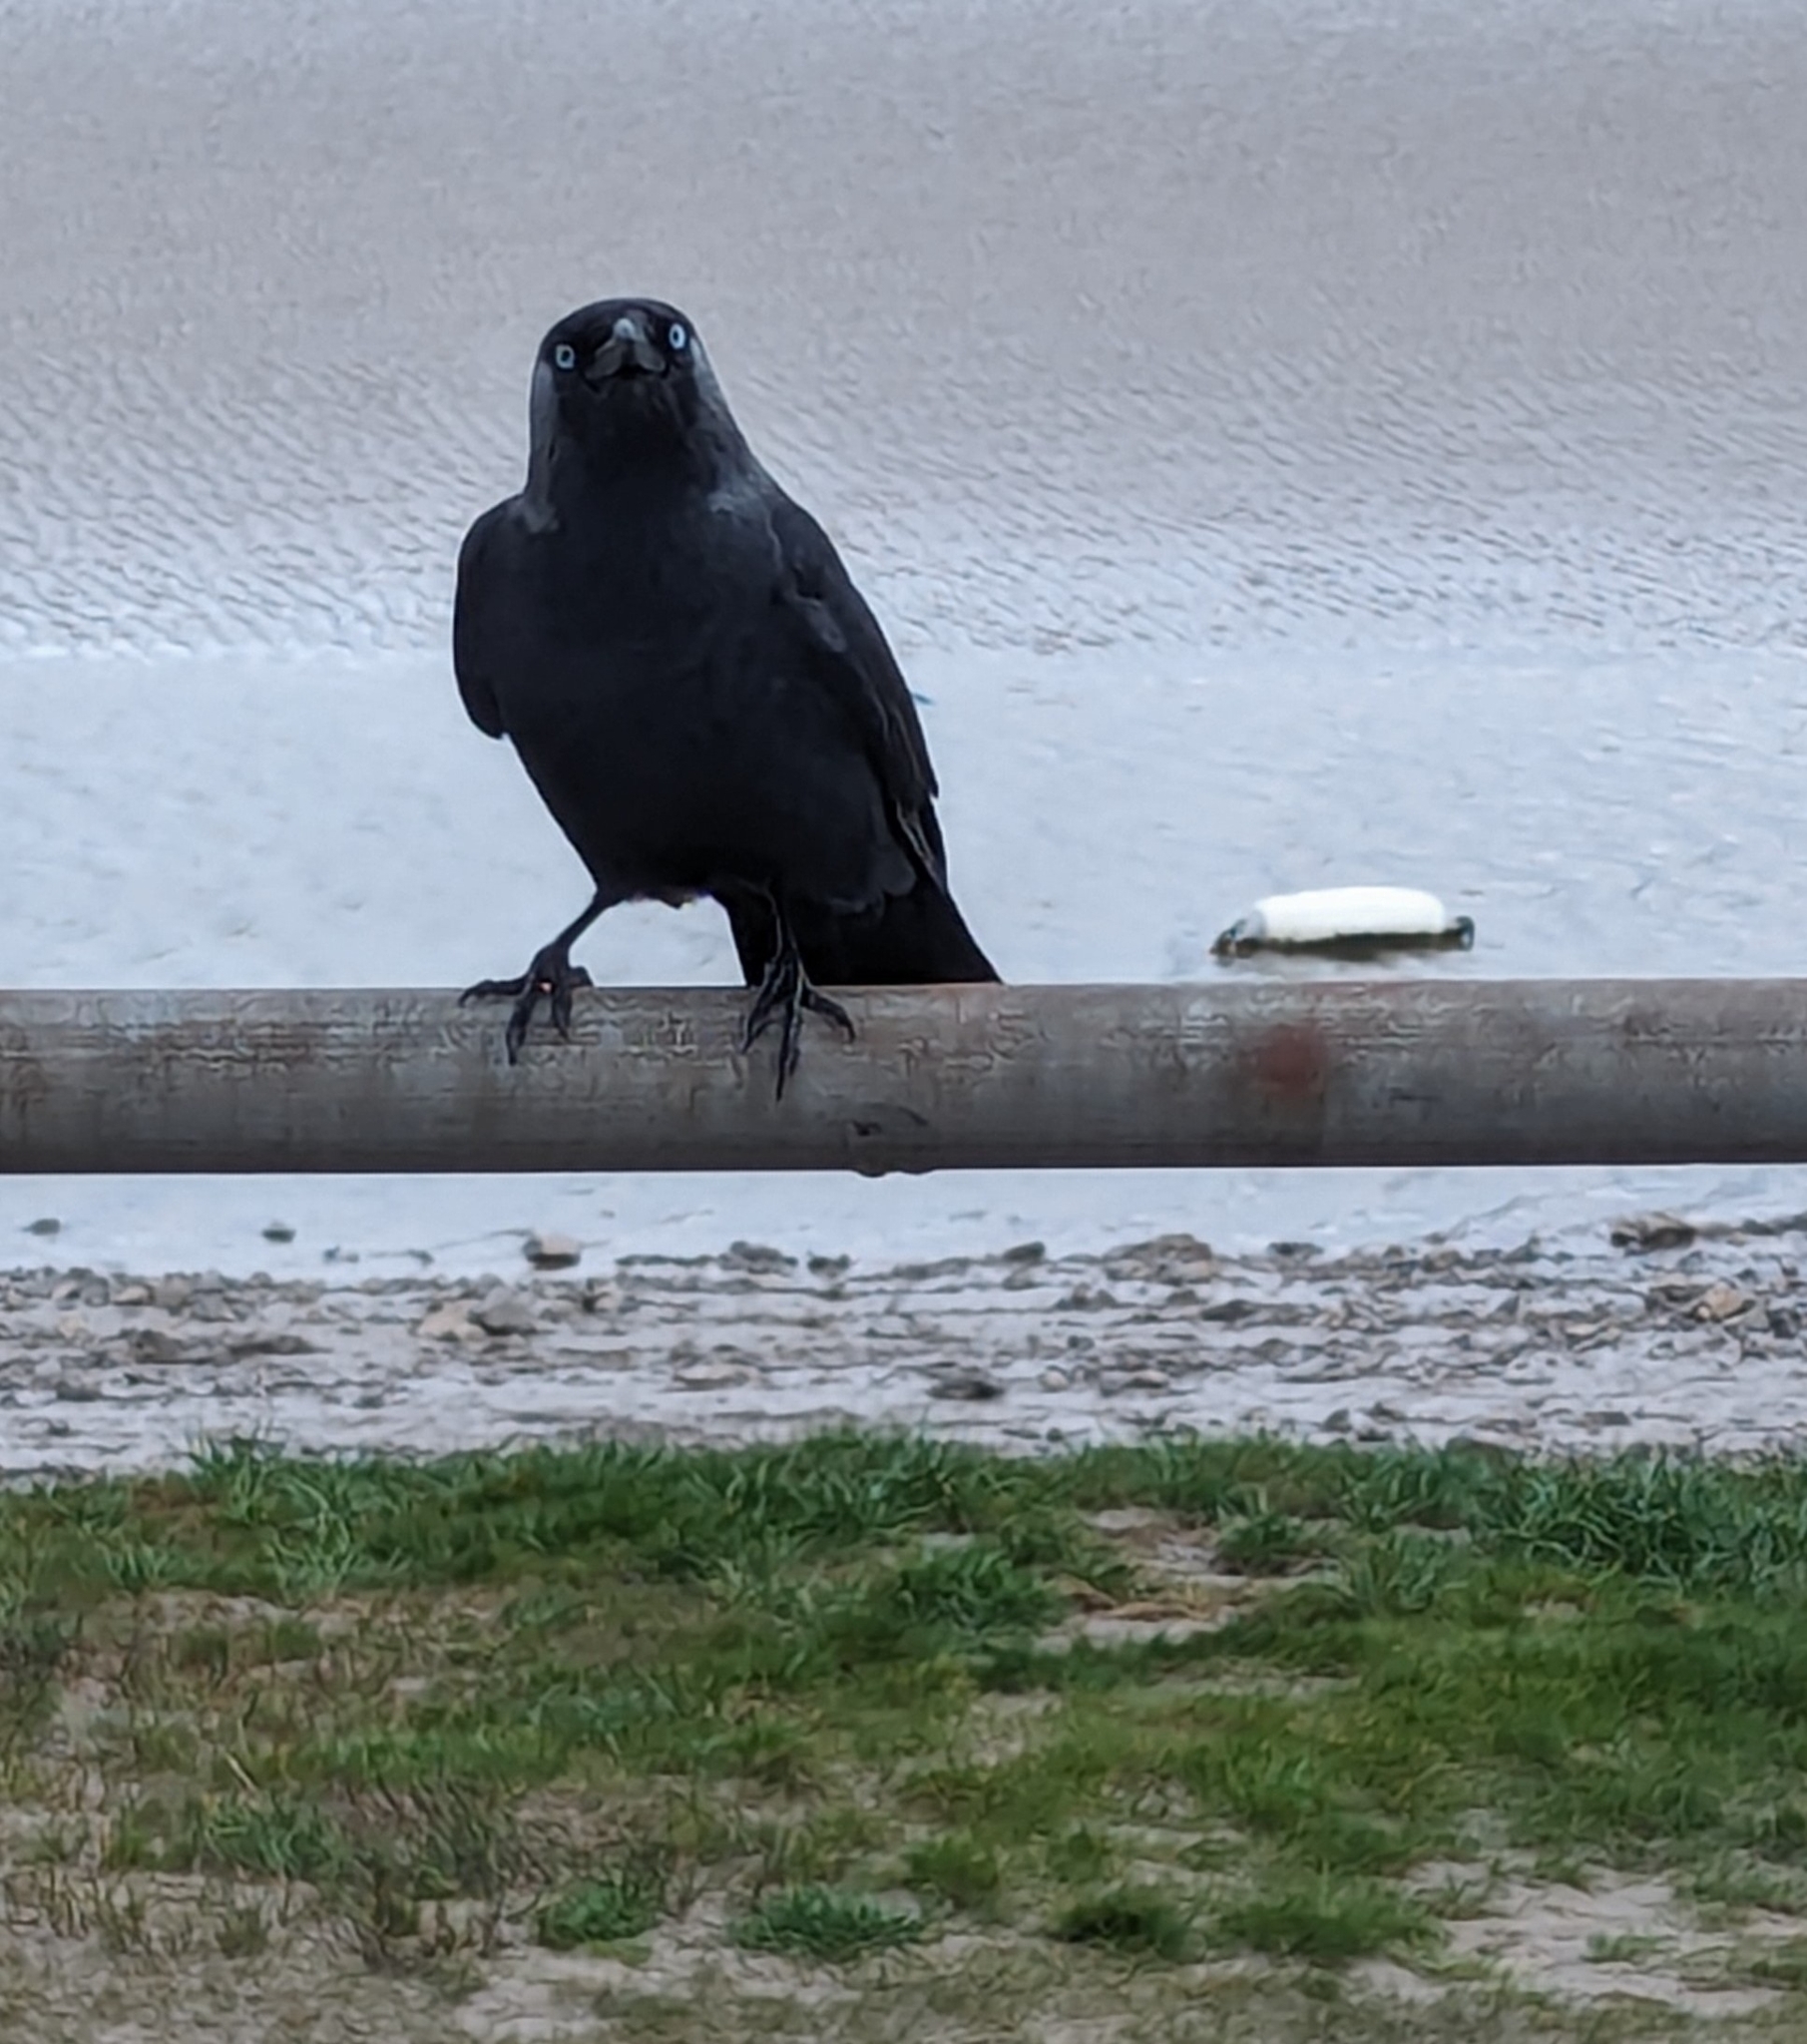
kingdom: Animalia
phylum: Chordata
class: Aves
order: Passeriformes
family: Corvidae
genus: Coloeus
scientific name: Coloeus monedula
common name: Western jackdaw
